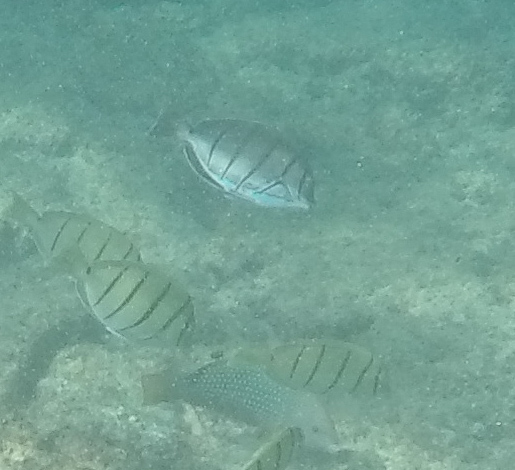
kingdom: Animalia
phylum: Chordata
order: Perciformes
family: Acanthuridae
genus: Acanthurus
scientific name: Acanthurus triostegus
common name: Convict surgeonfish
